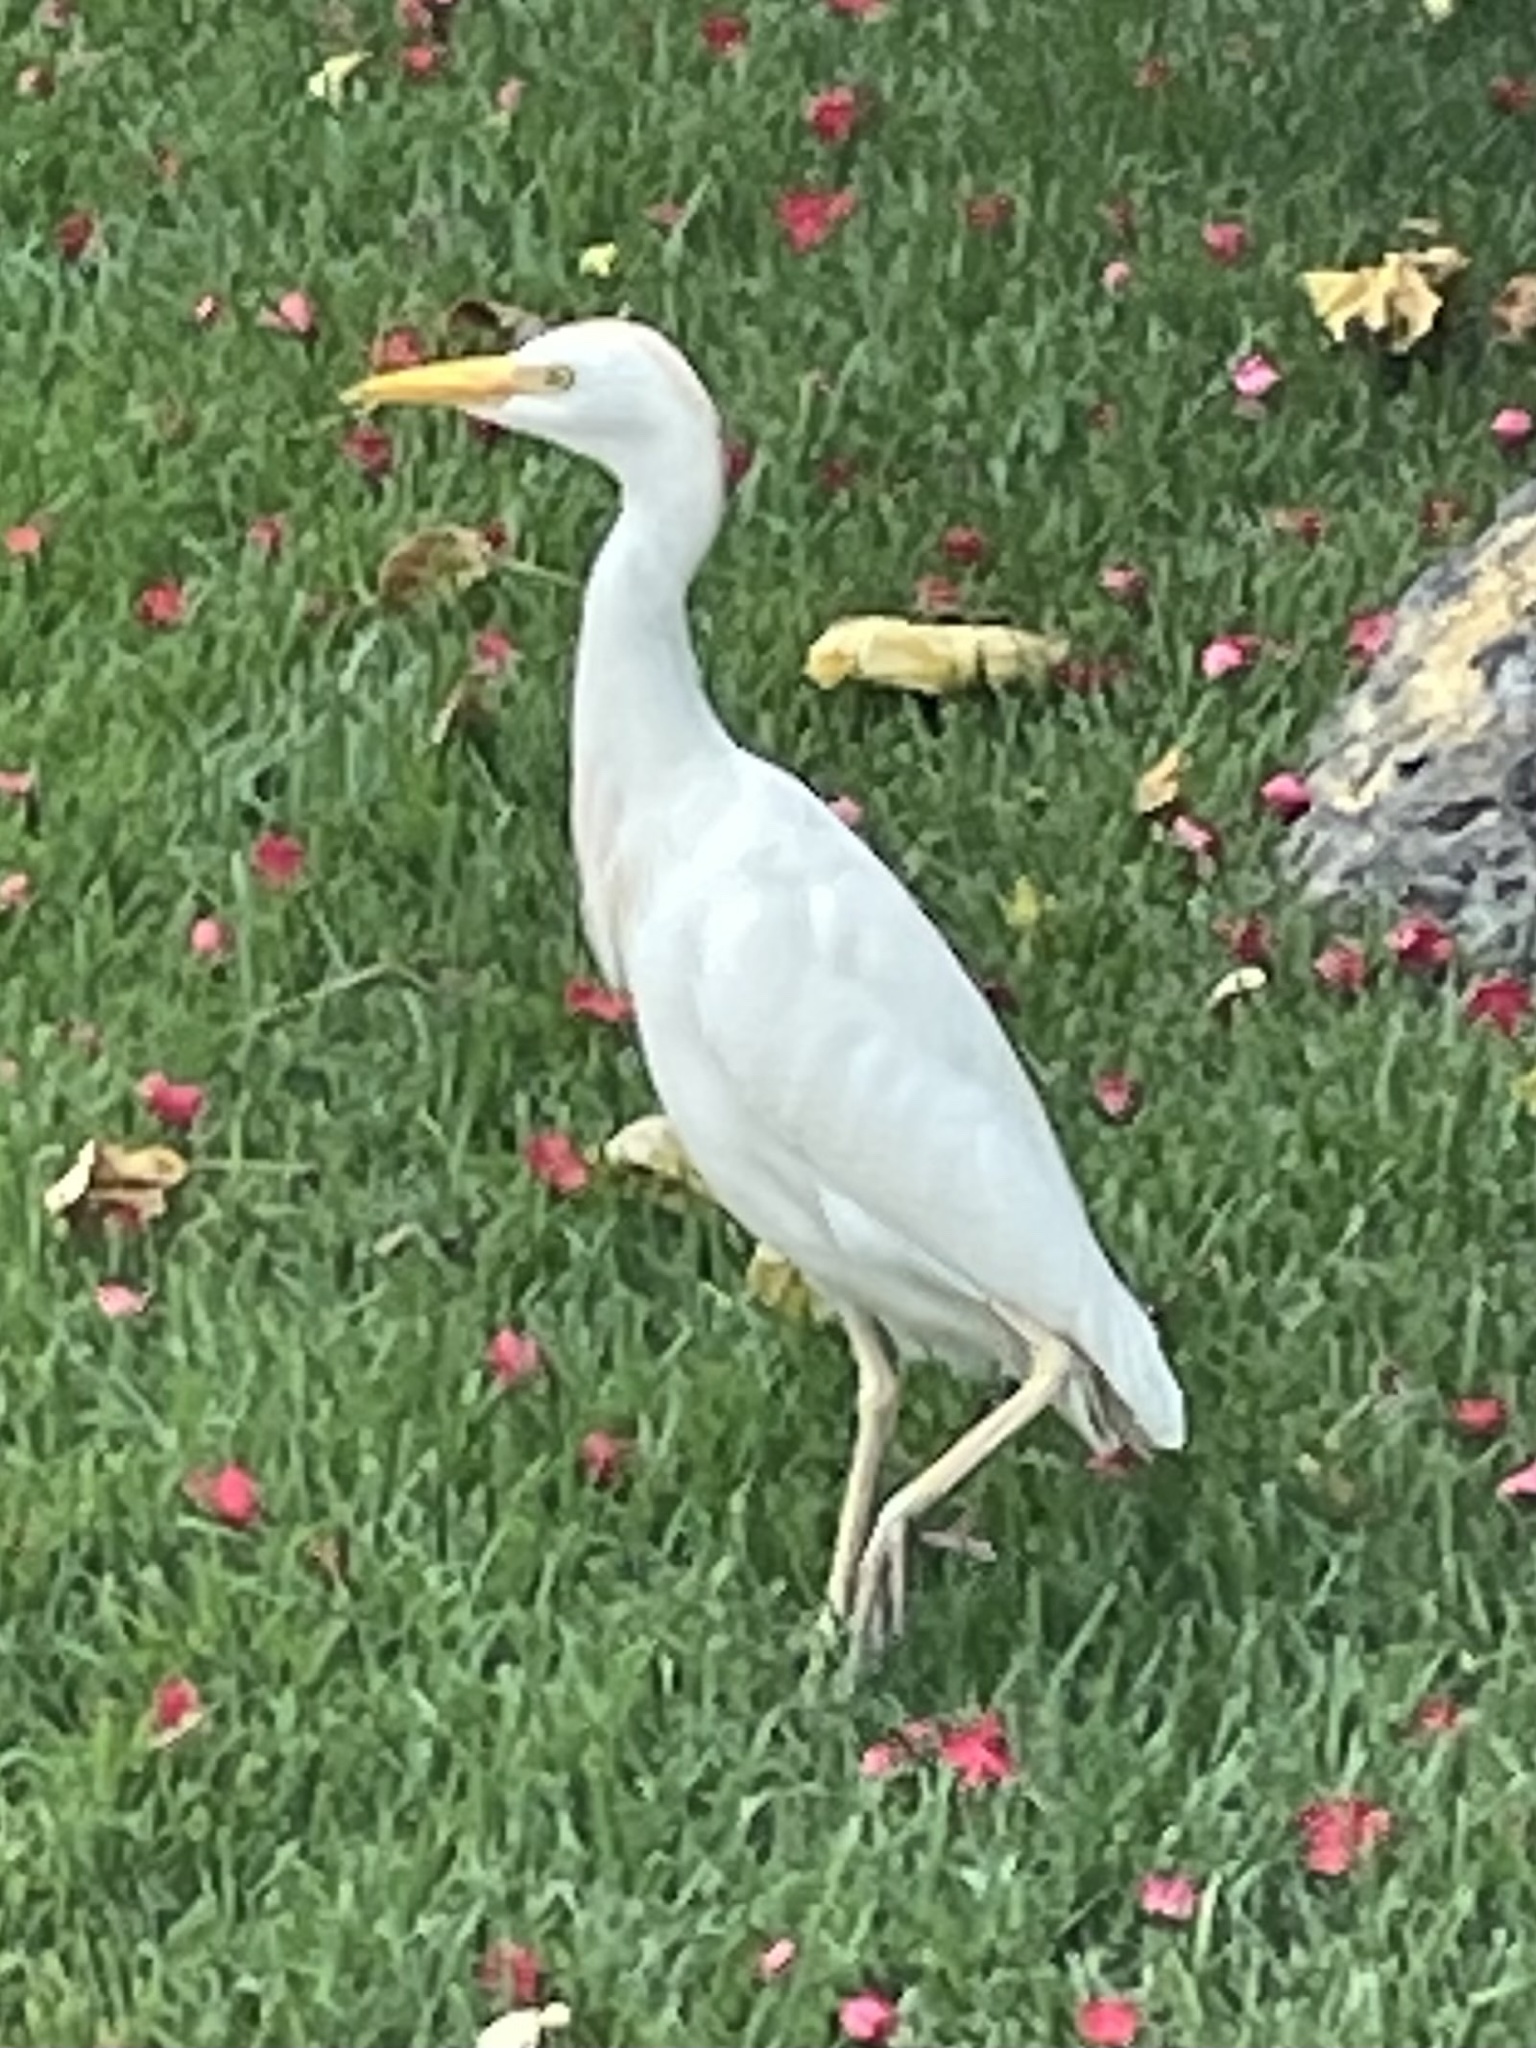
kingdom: Animalia
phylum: Chordata
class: Aves
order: Pelecaniformes
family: Ardeidae
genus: Bubulcus
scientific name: Bubulcus ibis
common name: Cattle egret
